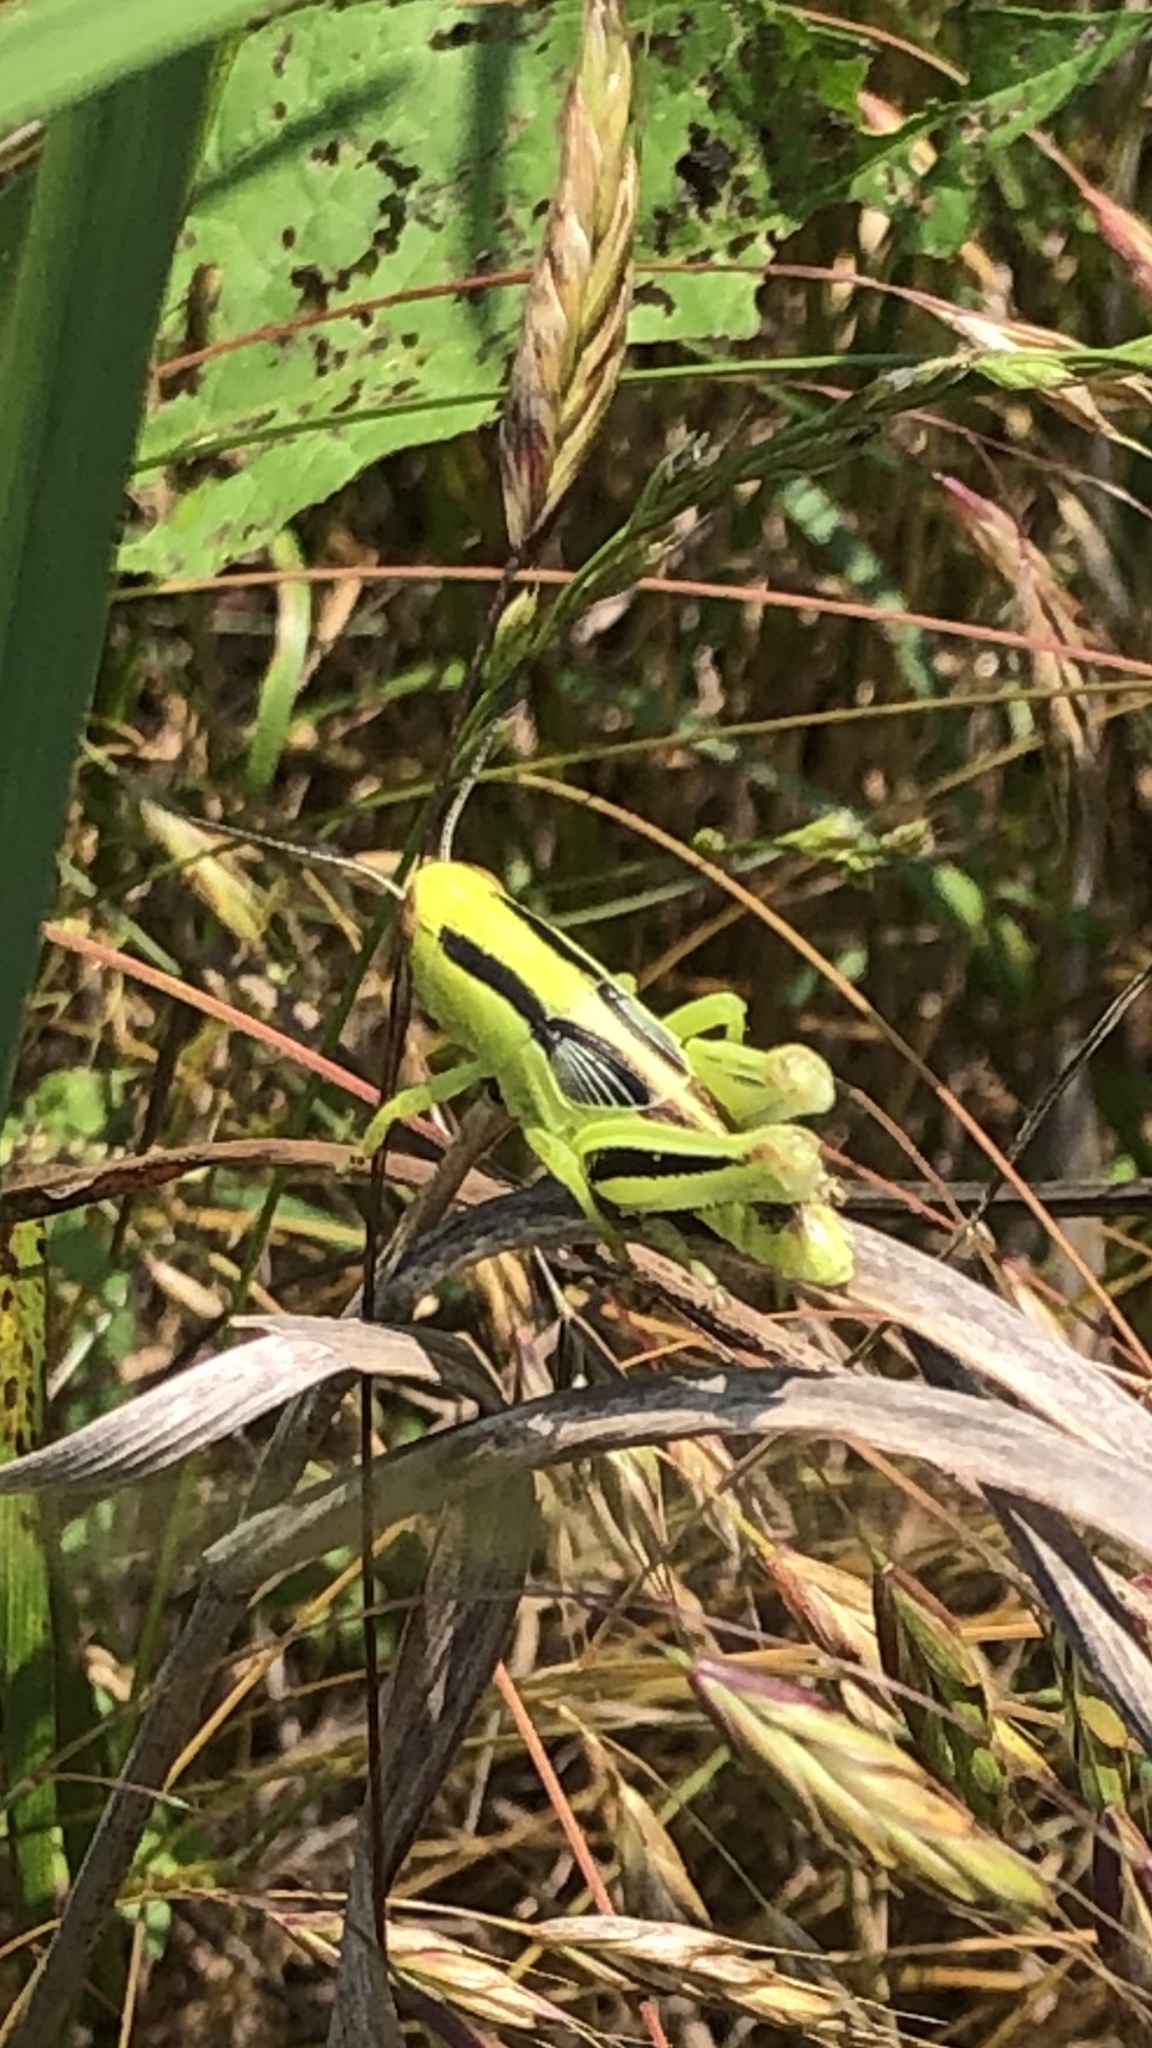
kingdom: Animalia
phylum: Arthropoda
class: Insecta
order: Orthoptera
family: Acrididae
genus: Melanoplus
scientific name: Melanoplus bivittatus
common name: Two-striped grasshopper
